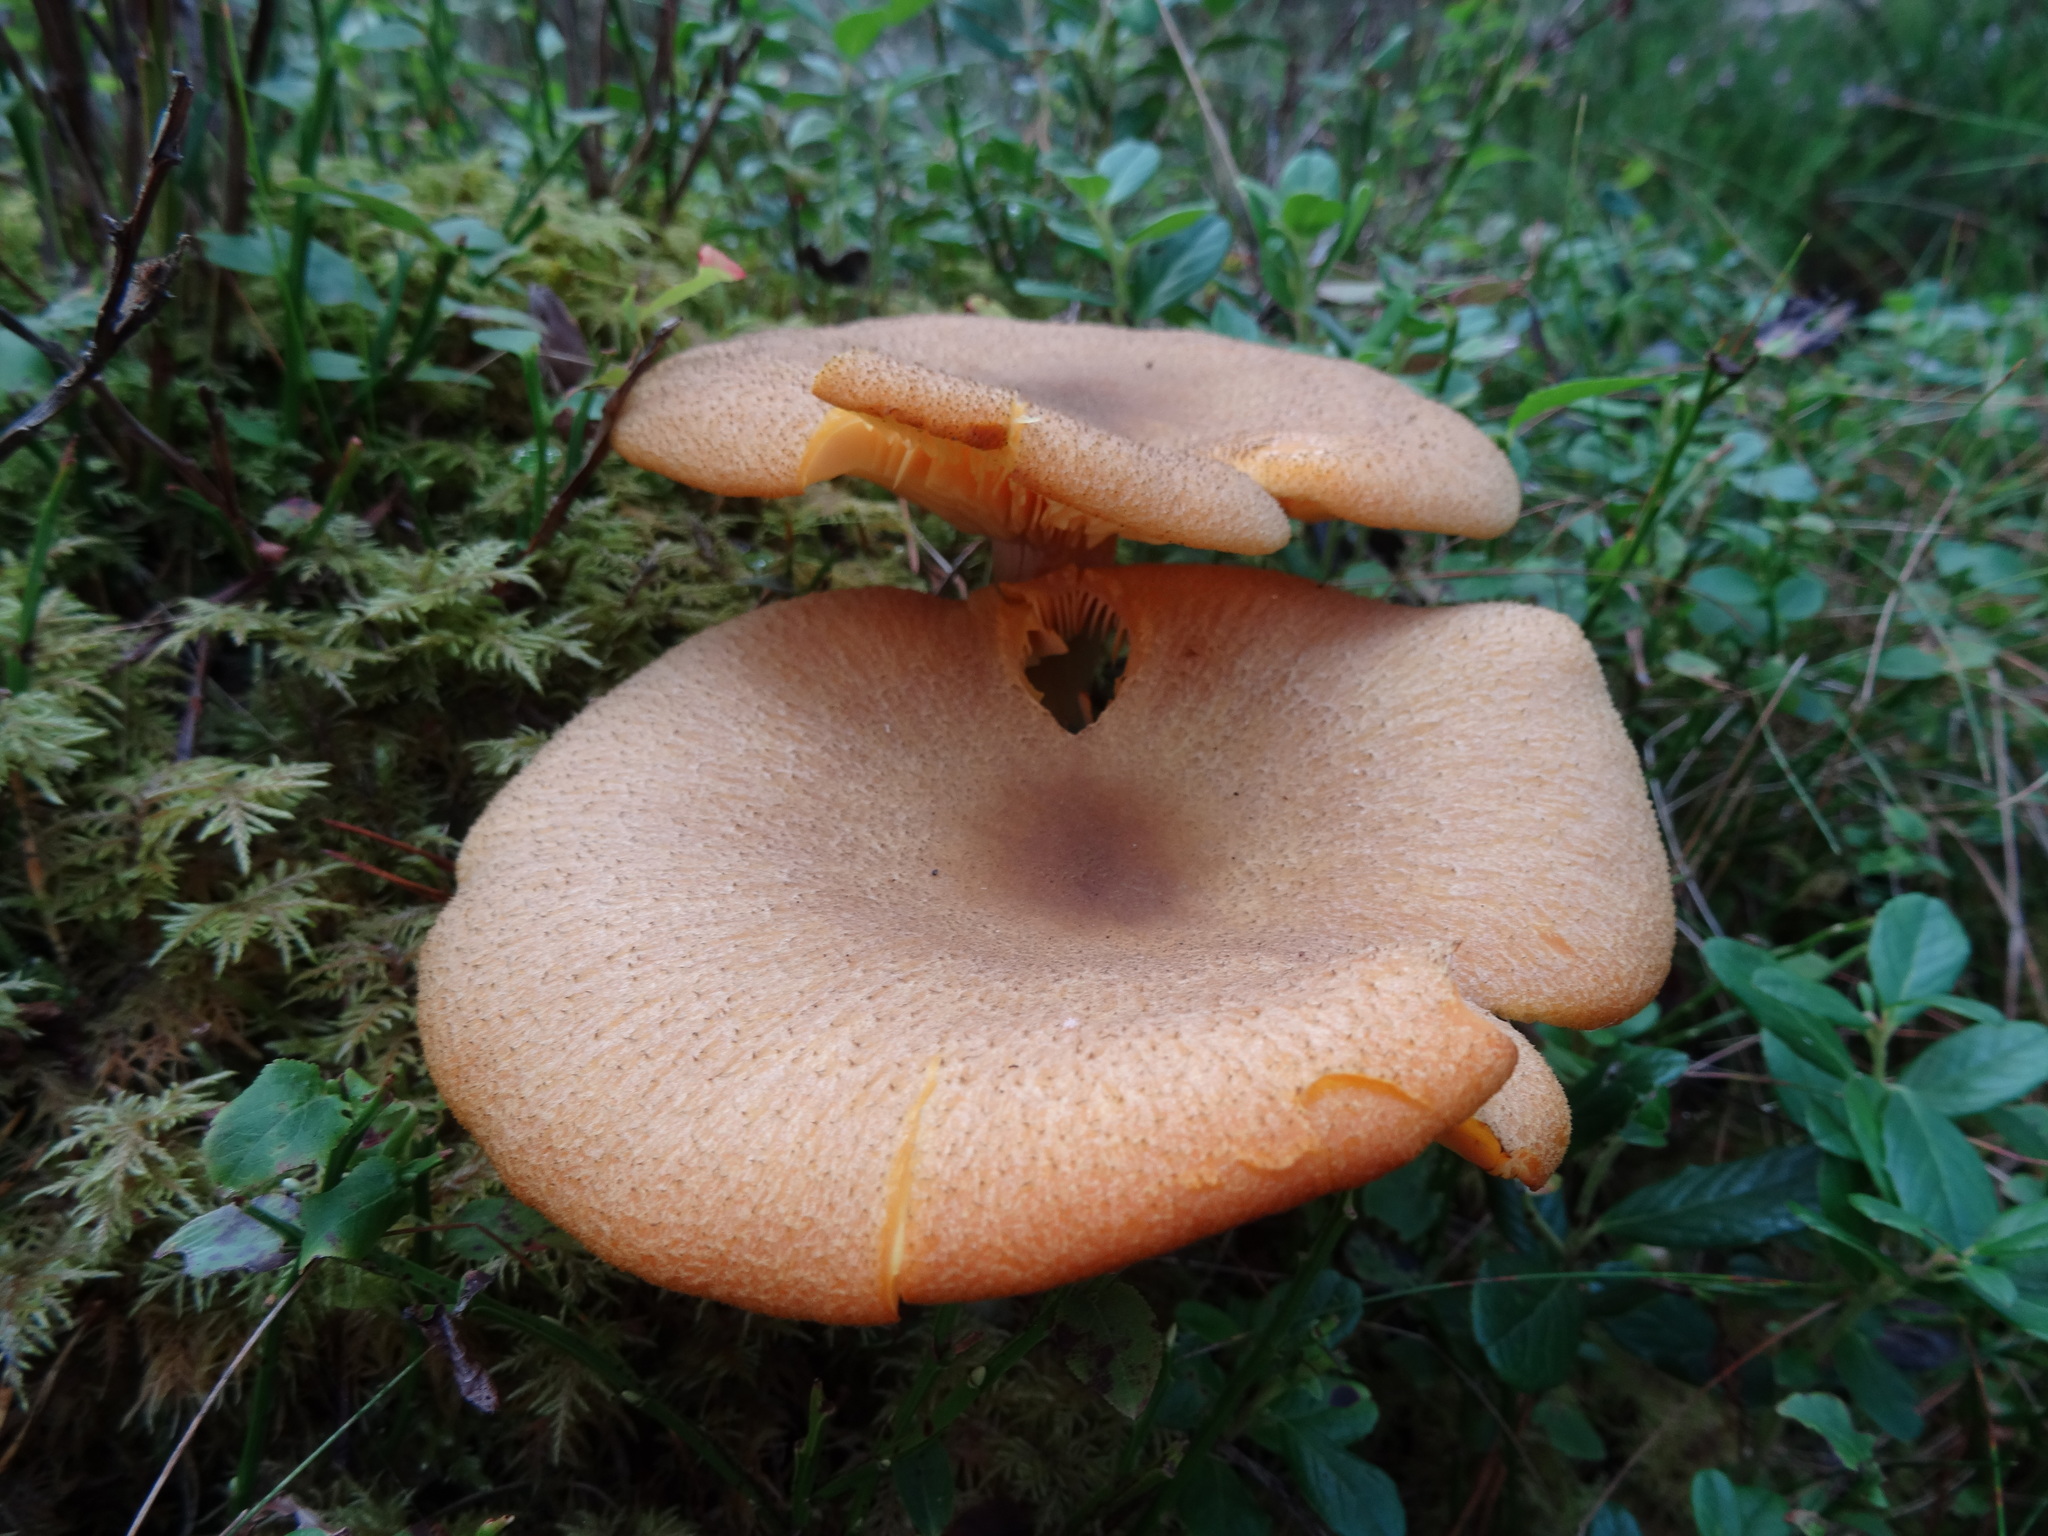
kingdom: Fungi
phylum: Basidiomycota
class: Agaricomycetes
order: Agaricales
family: Tricholomataceae
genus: Tricholomopsis
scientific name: Tricholomopsis rutilans
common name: Plums and custard
